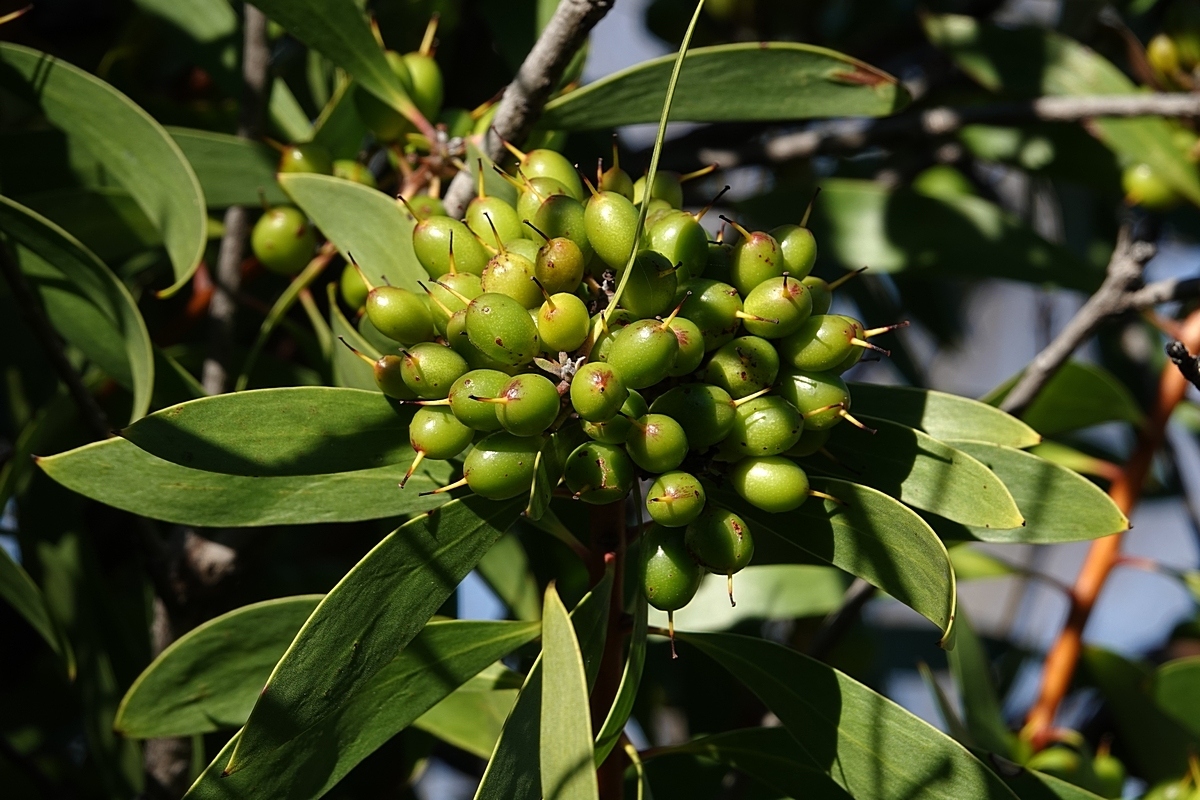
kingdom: Plantae
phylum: Tracheophyta
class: Magnoliopsida
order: Proteales
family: Proteaceae
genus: Persoonia
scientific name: Persoonia levis
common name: Smooth geebung
